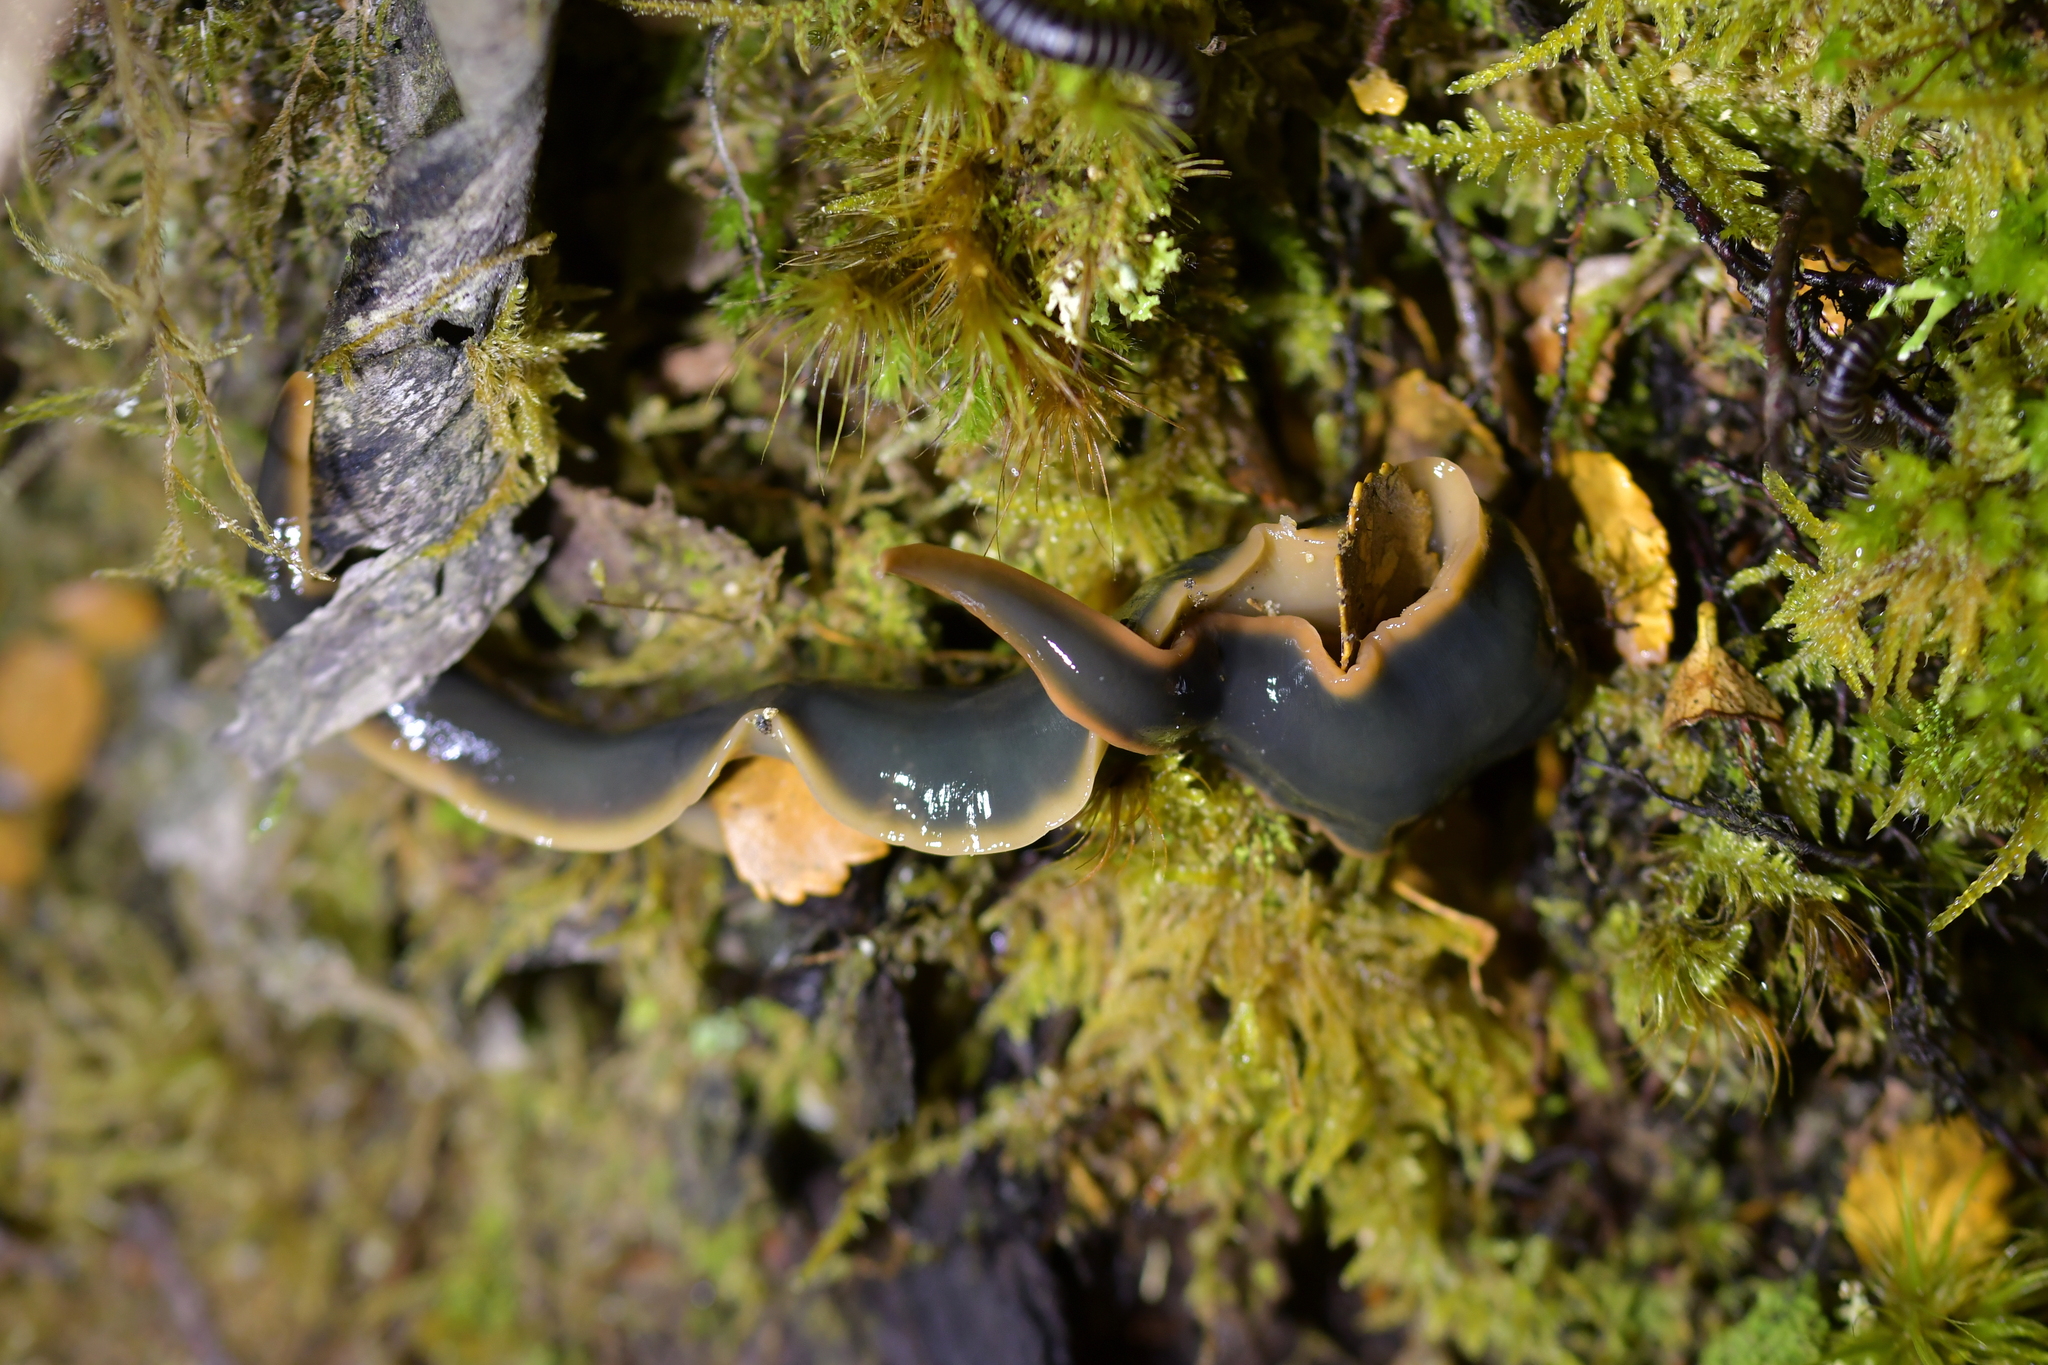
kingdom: Animalia
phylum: Platyhelminthes
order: Tricladida
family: Geoplanidae
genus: Australopacifica
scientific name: Australopacifica
